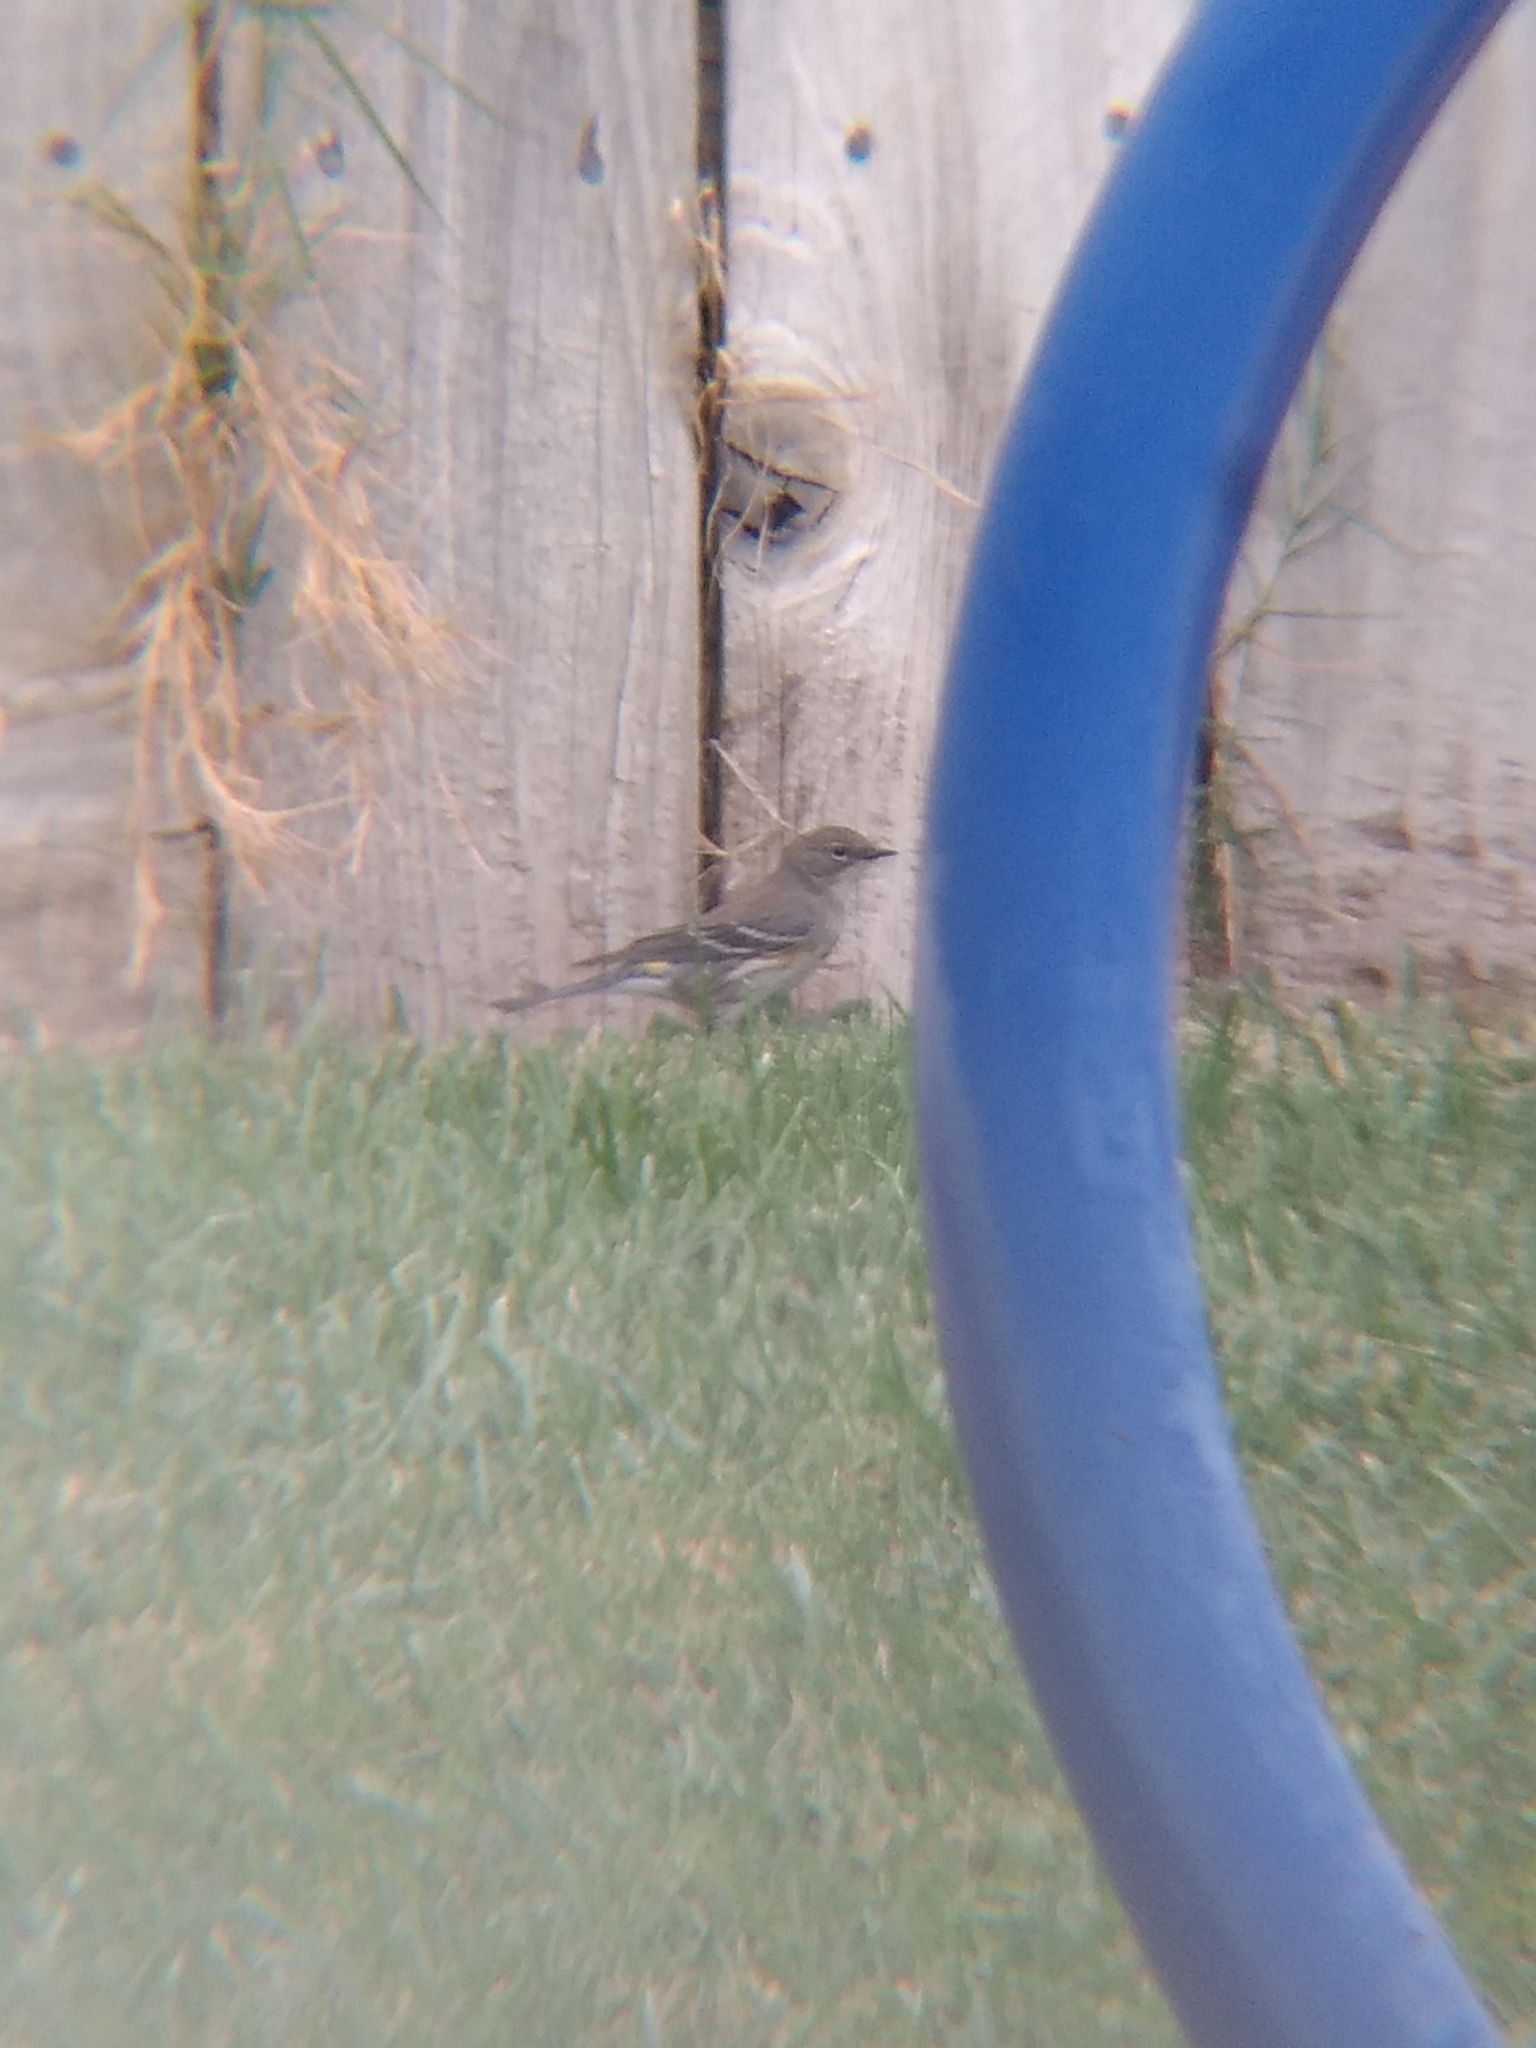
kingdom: Animalia
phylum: Chordata
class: Aves
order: Passeriformes
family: Parulidae
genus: Setophaga
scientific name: Setophaga coronata
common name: Myrtle warbler
